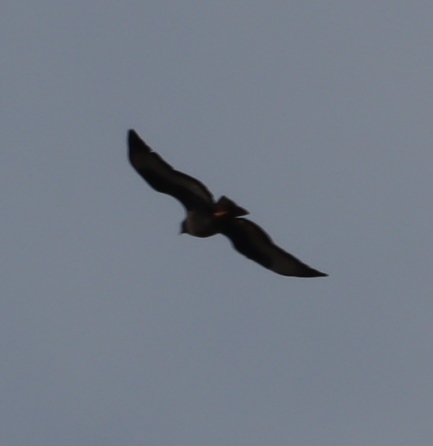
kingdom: Animalia
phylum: Chordata
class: Aves
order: Accipitriformes
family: Accipitridae
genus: Buteo
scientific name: Buteo rufofuscus
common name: Jackal buzzard
